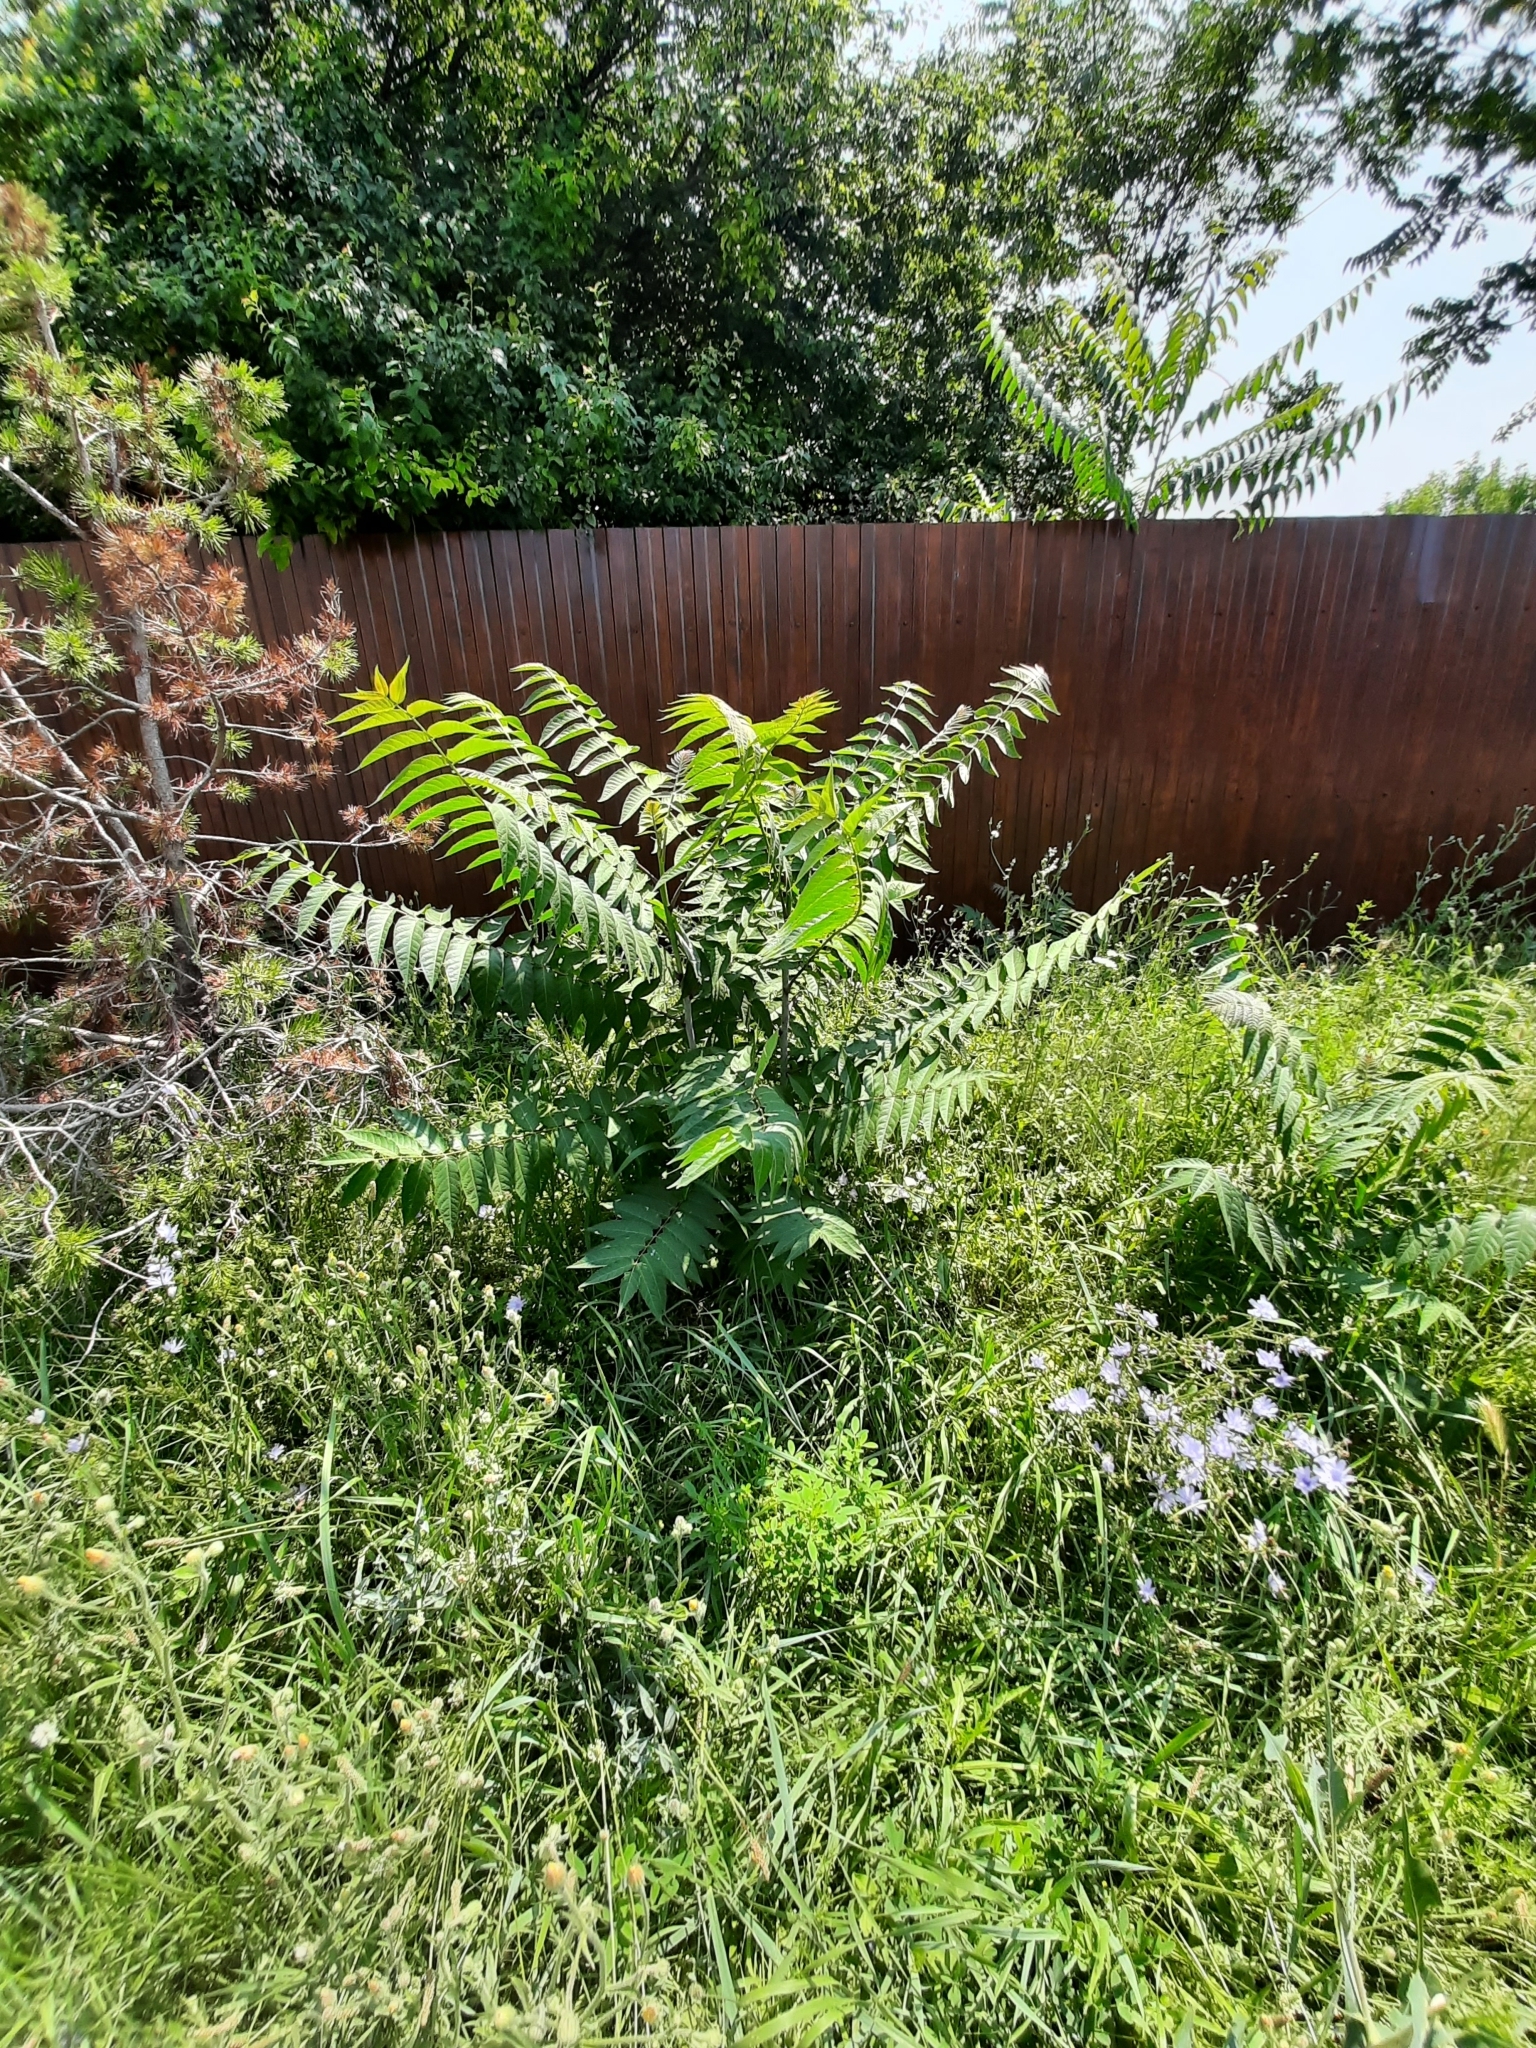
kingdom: Plantae
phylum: Tracheophyta
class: Magnoliopsida
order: Sapindales
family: Simaroubaceae
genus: Ailanthus
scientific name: Ailanthus altissima
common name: Tree-of-heaven
